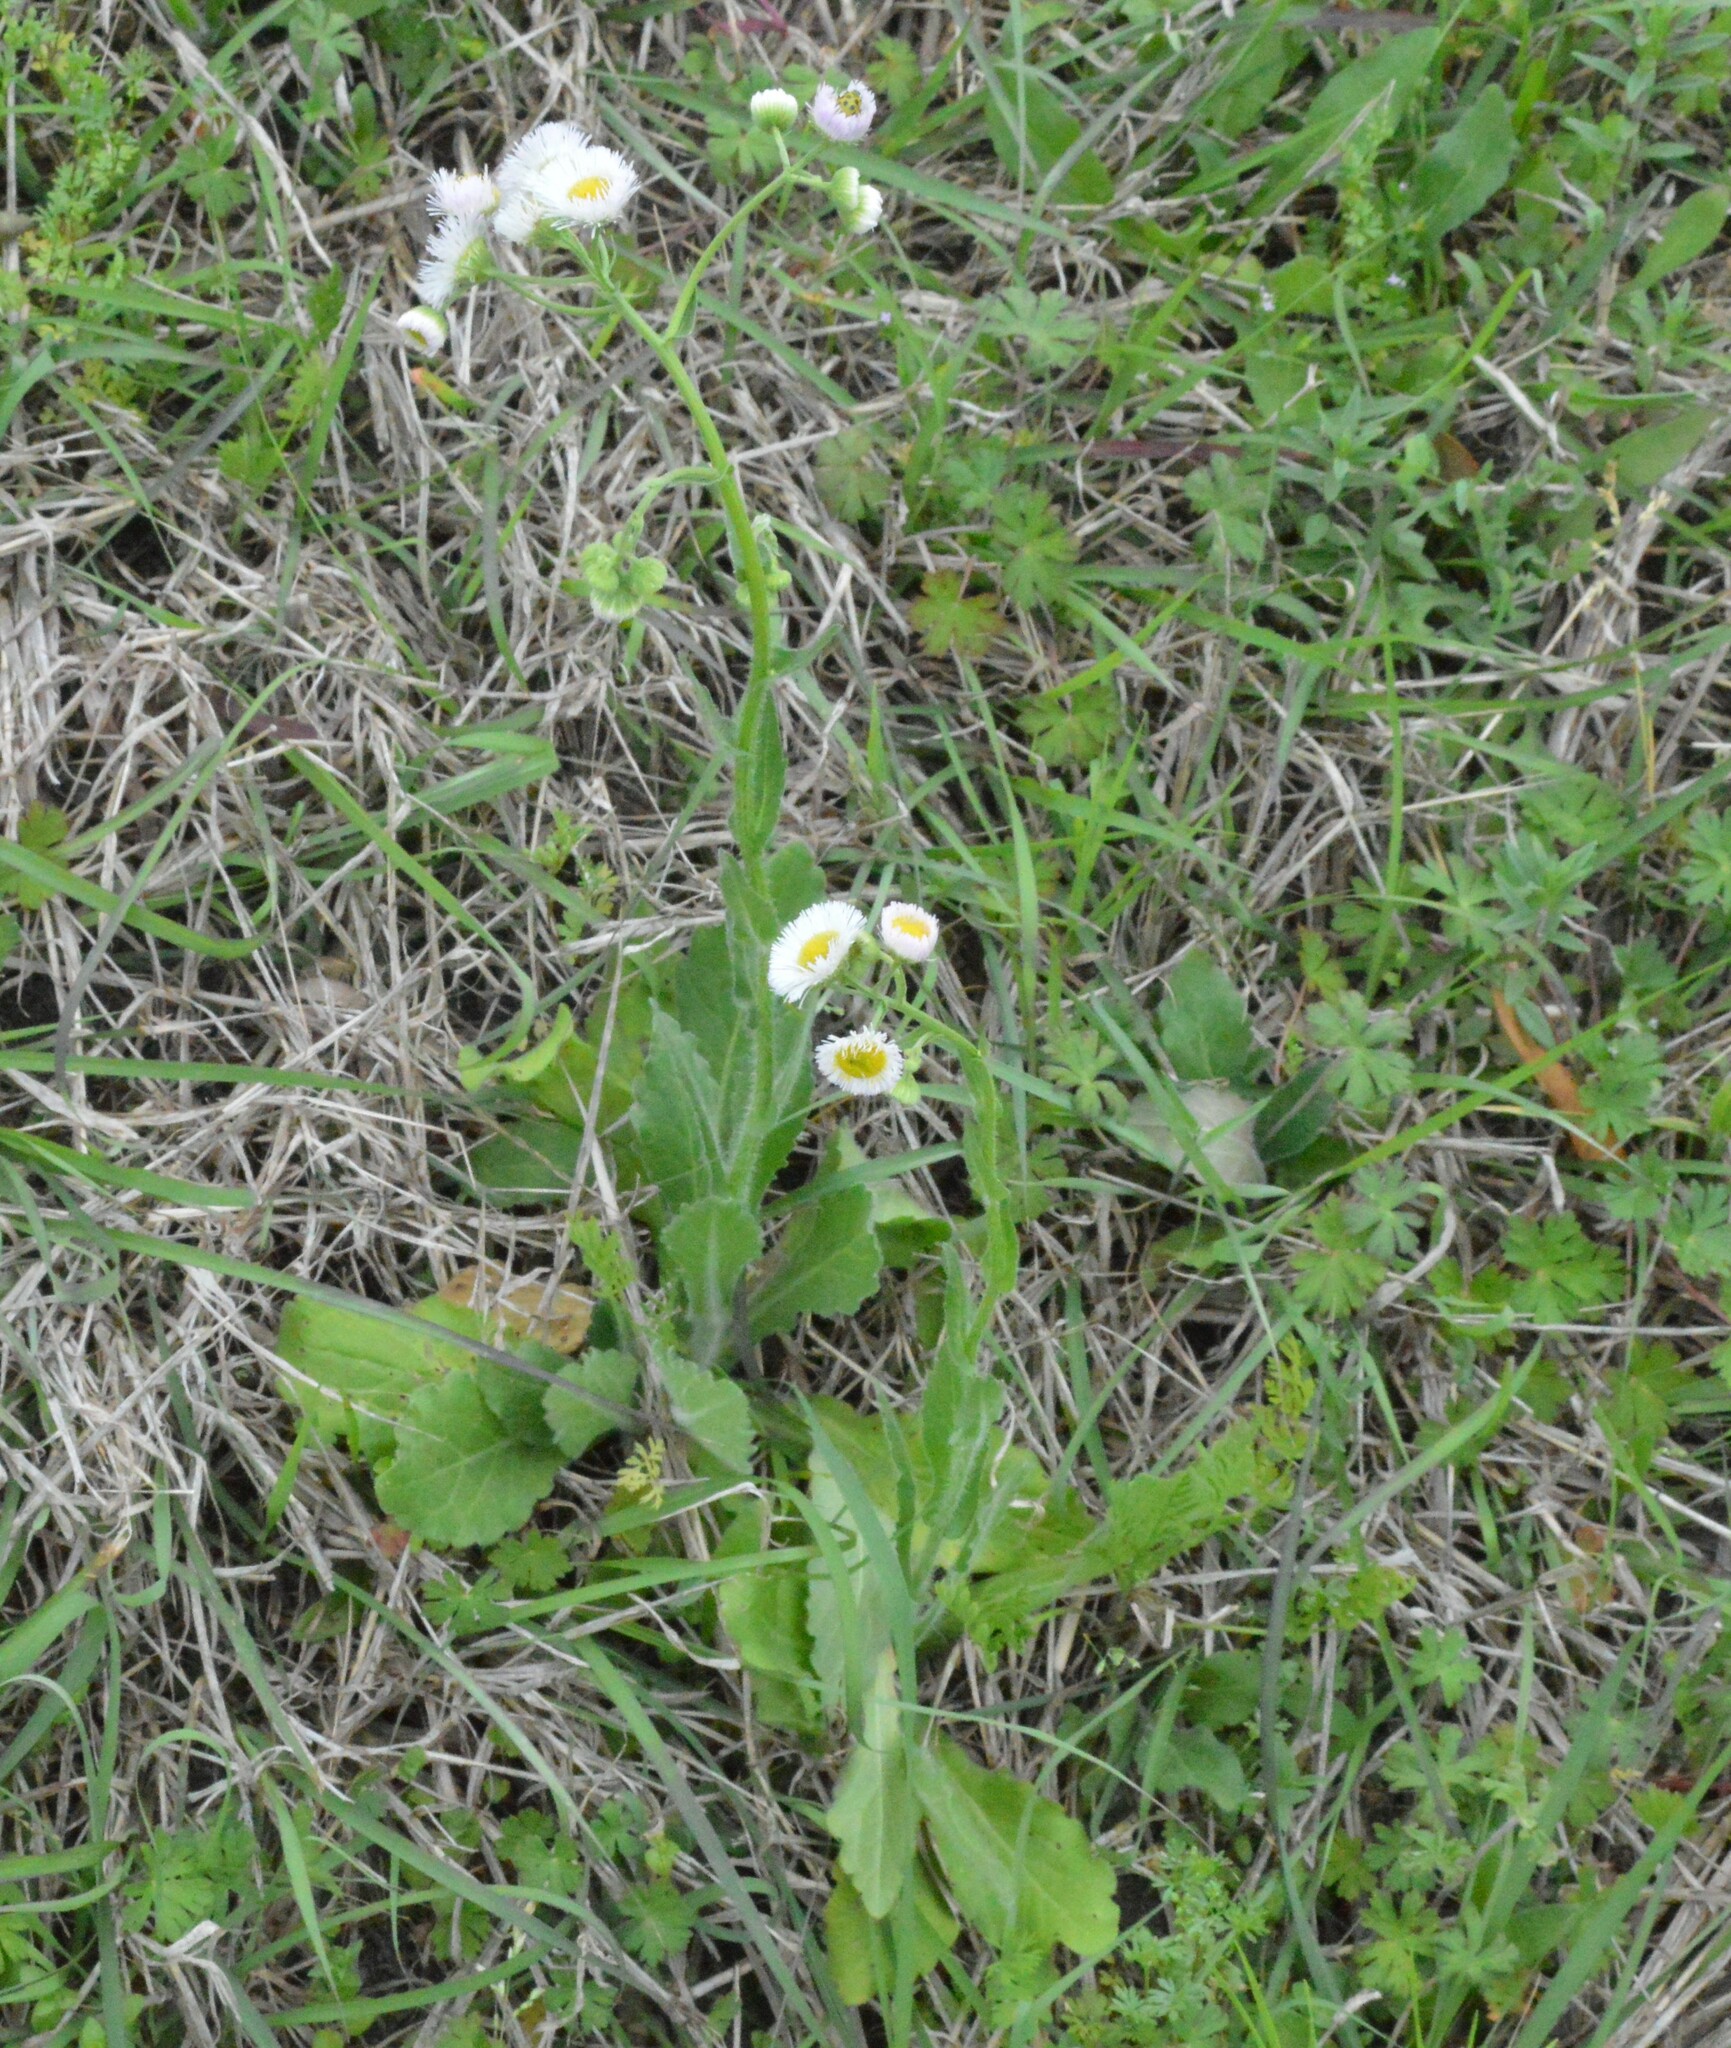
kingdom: Plantae
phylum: Tracheophyta
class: Magnoliopsida
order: Asterales
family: Asteraceae
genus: Erigeron
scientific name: Erigeron philadelphicus
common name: Robin's-plantain
